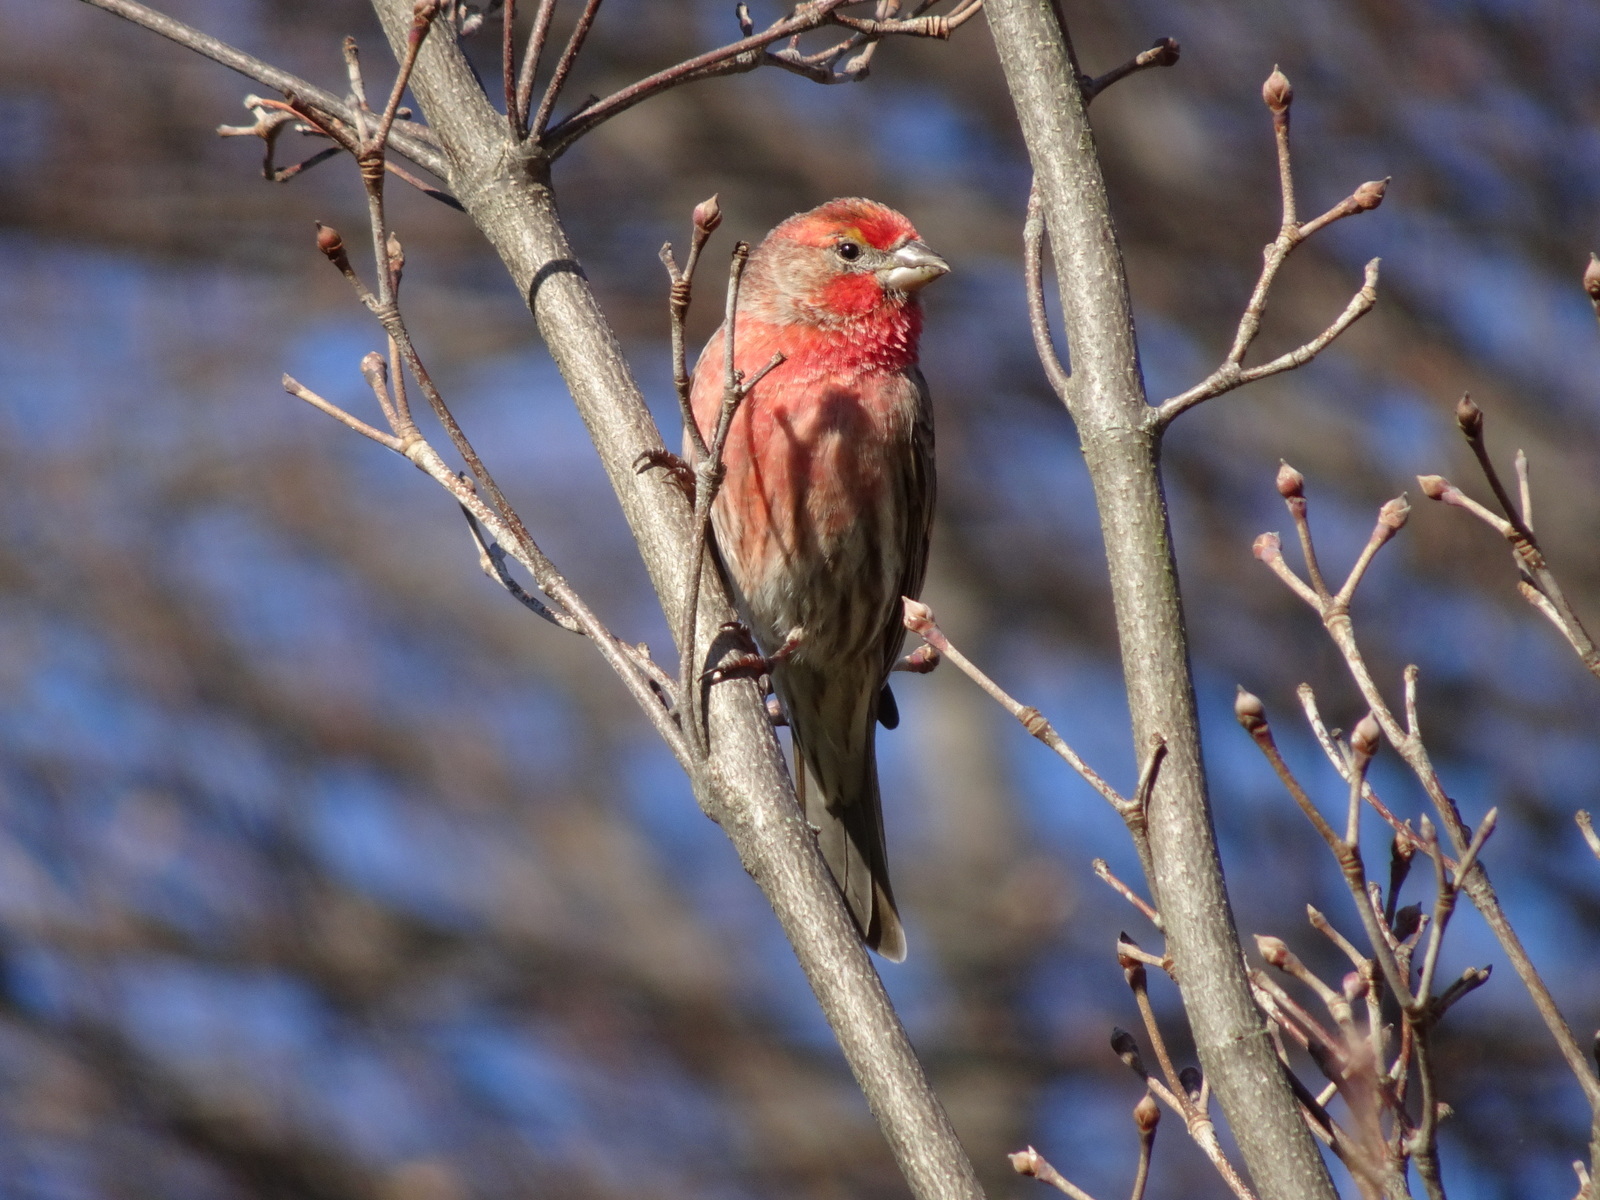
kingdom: Animalia
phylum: Chordata
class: Aves
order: Passeriformes
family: Fringillidae
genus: Haemorhous
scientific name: Haemorhous mexicanus
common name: House finch
